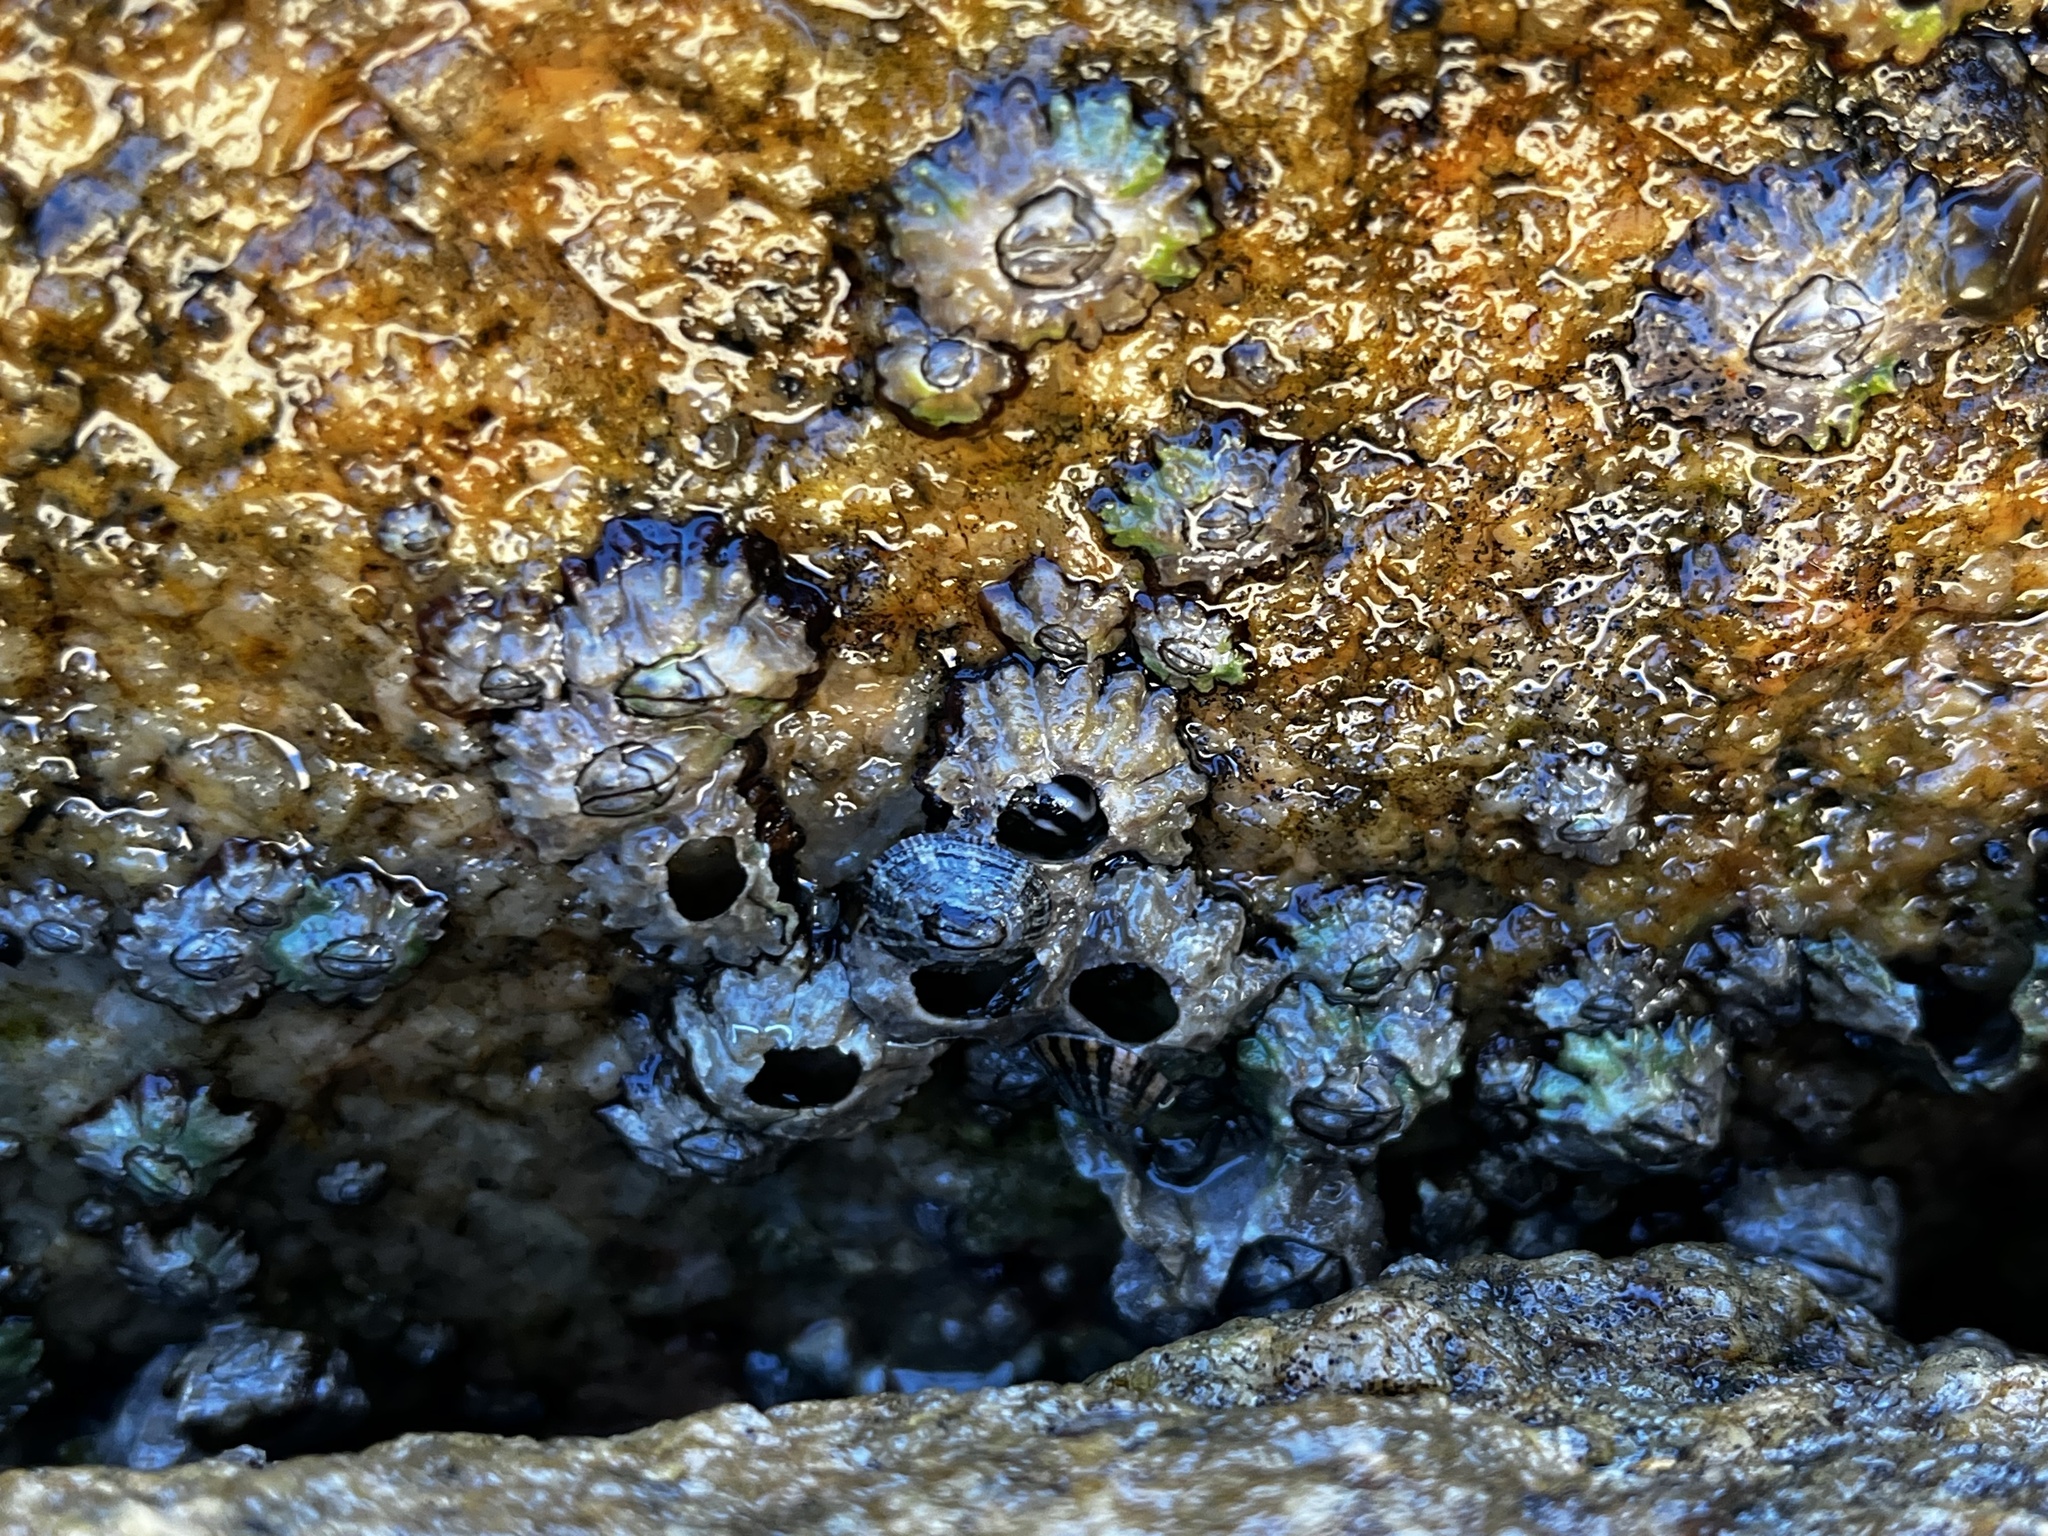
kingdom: Animalia
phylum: Arthropoda
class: Maxillopoda
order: Sessilia
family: Chthamalidae
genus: Jehlius
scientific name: Jehlius cirratus
